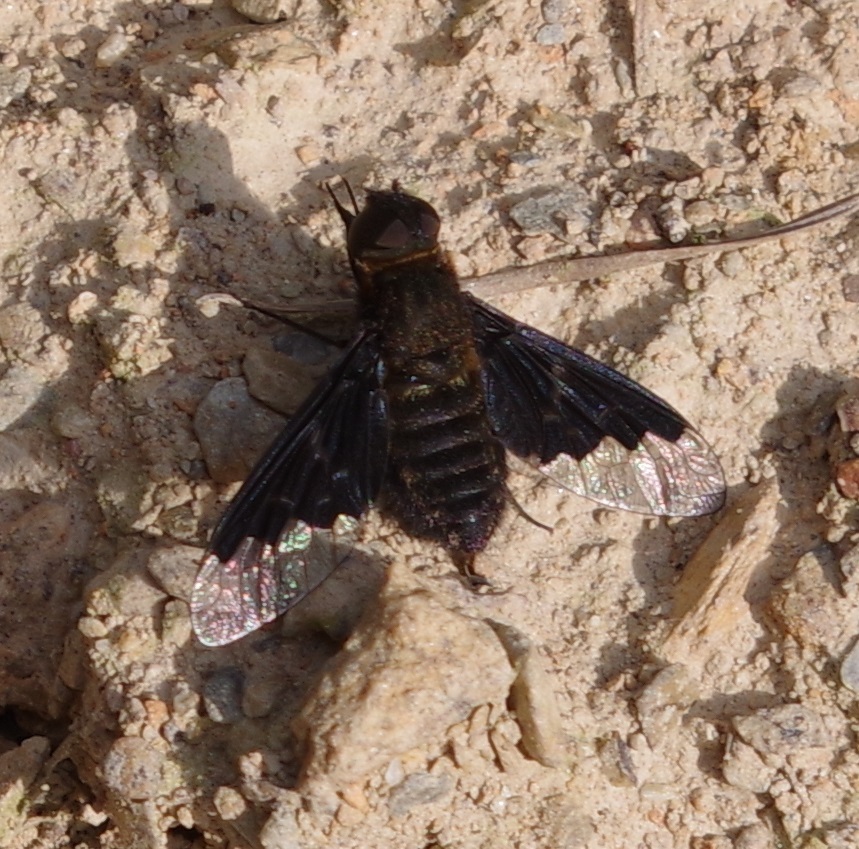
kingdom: Animalia
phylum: Arthropoda
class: Insecta
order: Diptera
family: Bombyliidae
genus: Hemipenthes
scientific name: Hemipenthes morio
